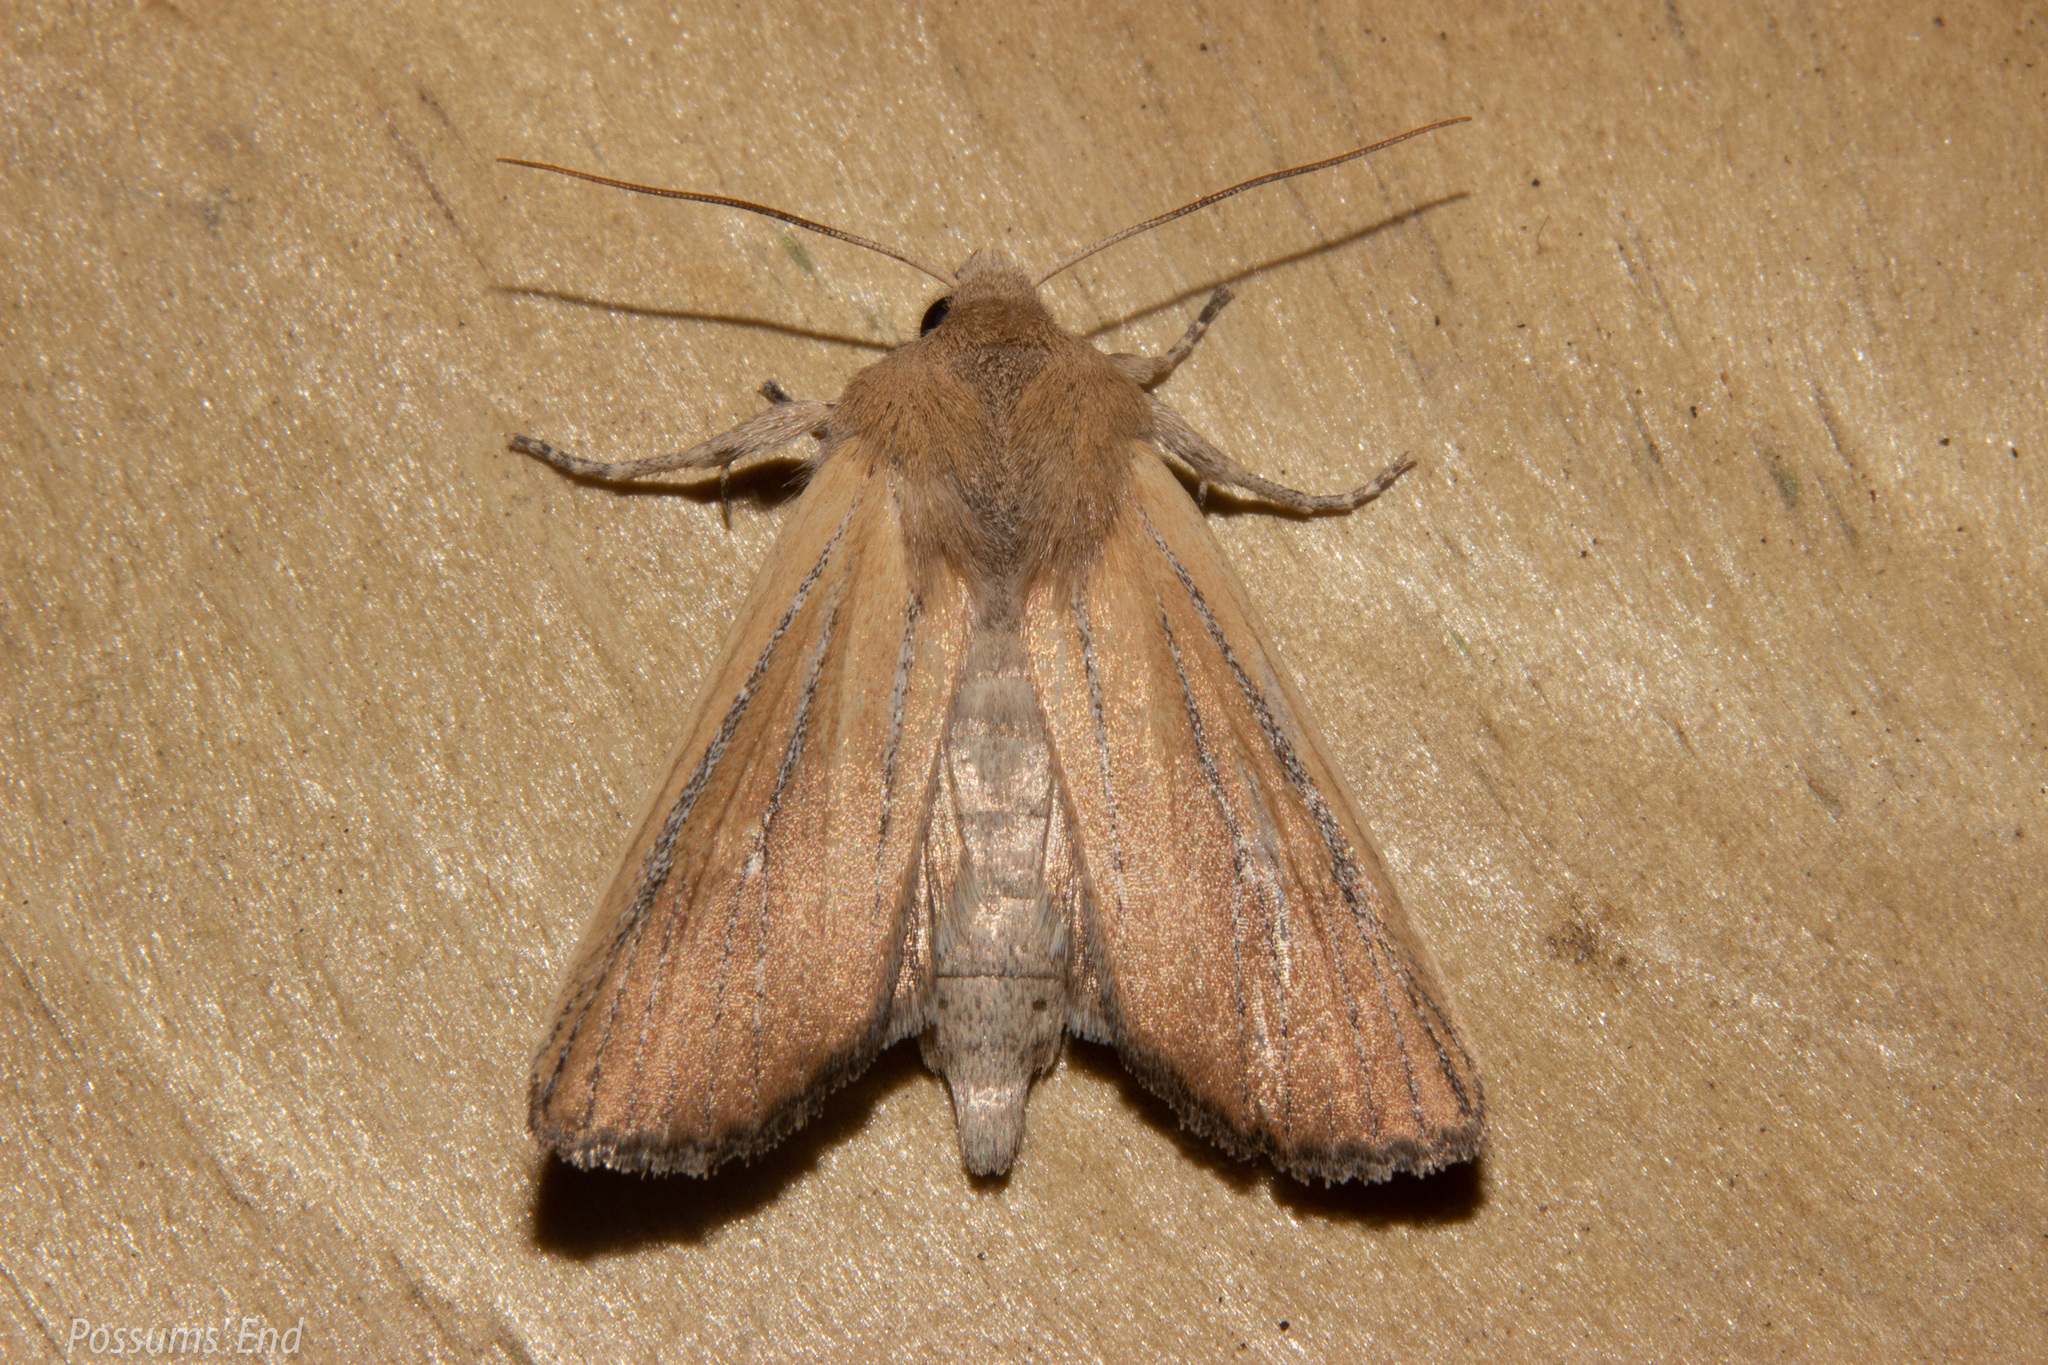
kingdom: Animalia
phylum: Arthropoda
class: Insecta
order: Lepidoptera
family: Noctuidae
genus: Ichneutica
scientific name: Ichneutica blenheimensis
